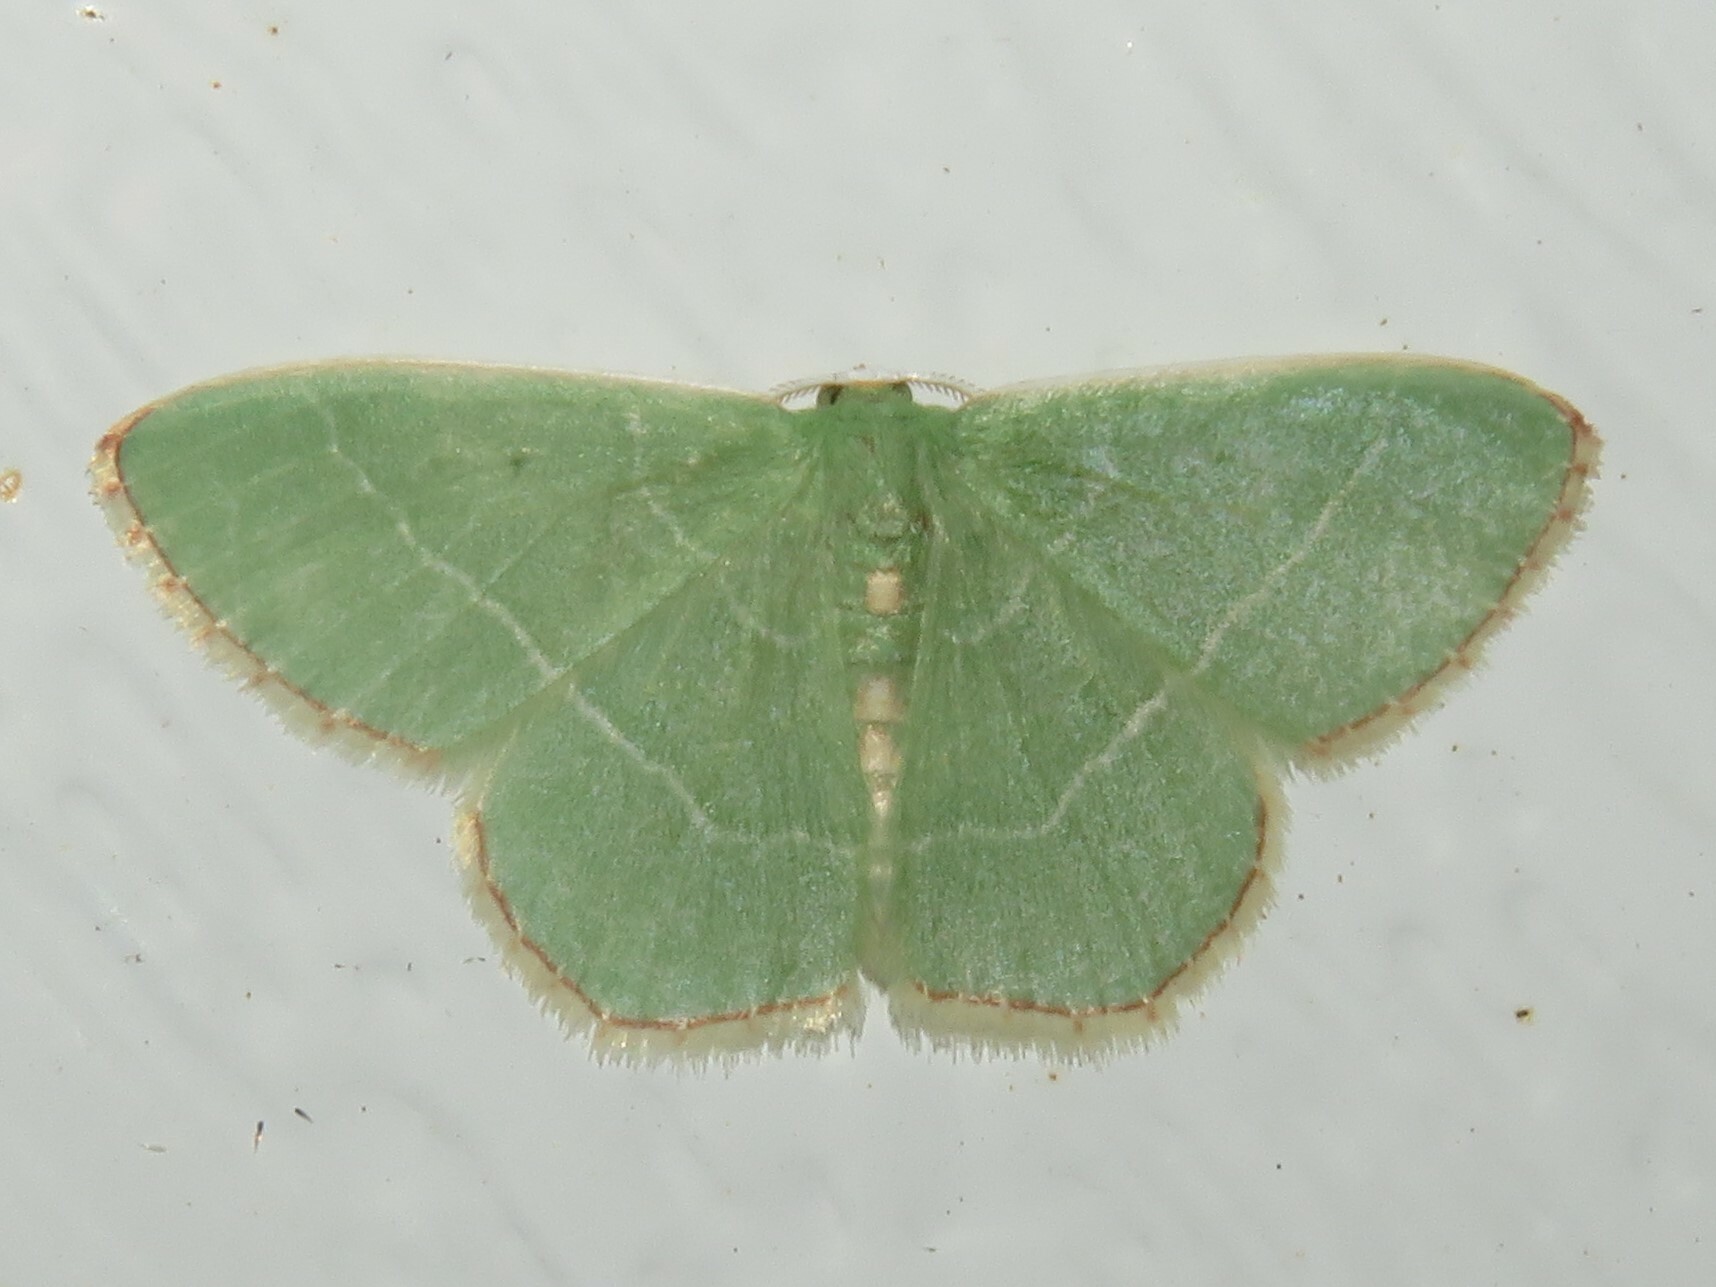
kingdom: Animalia
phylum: Arthropoda
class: Insecta
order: Lepidoptera
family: Geometridae
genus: Nemoria
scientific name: Nemoria bistriaria
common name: Red-fringed emerald
